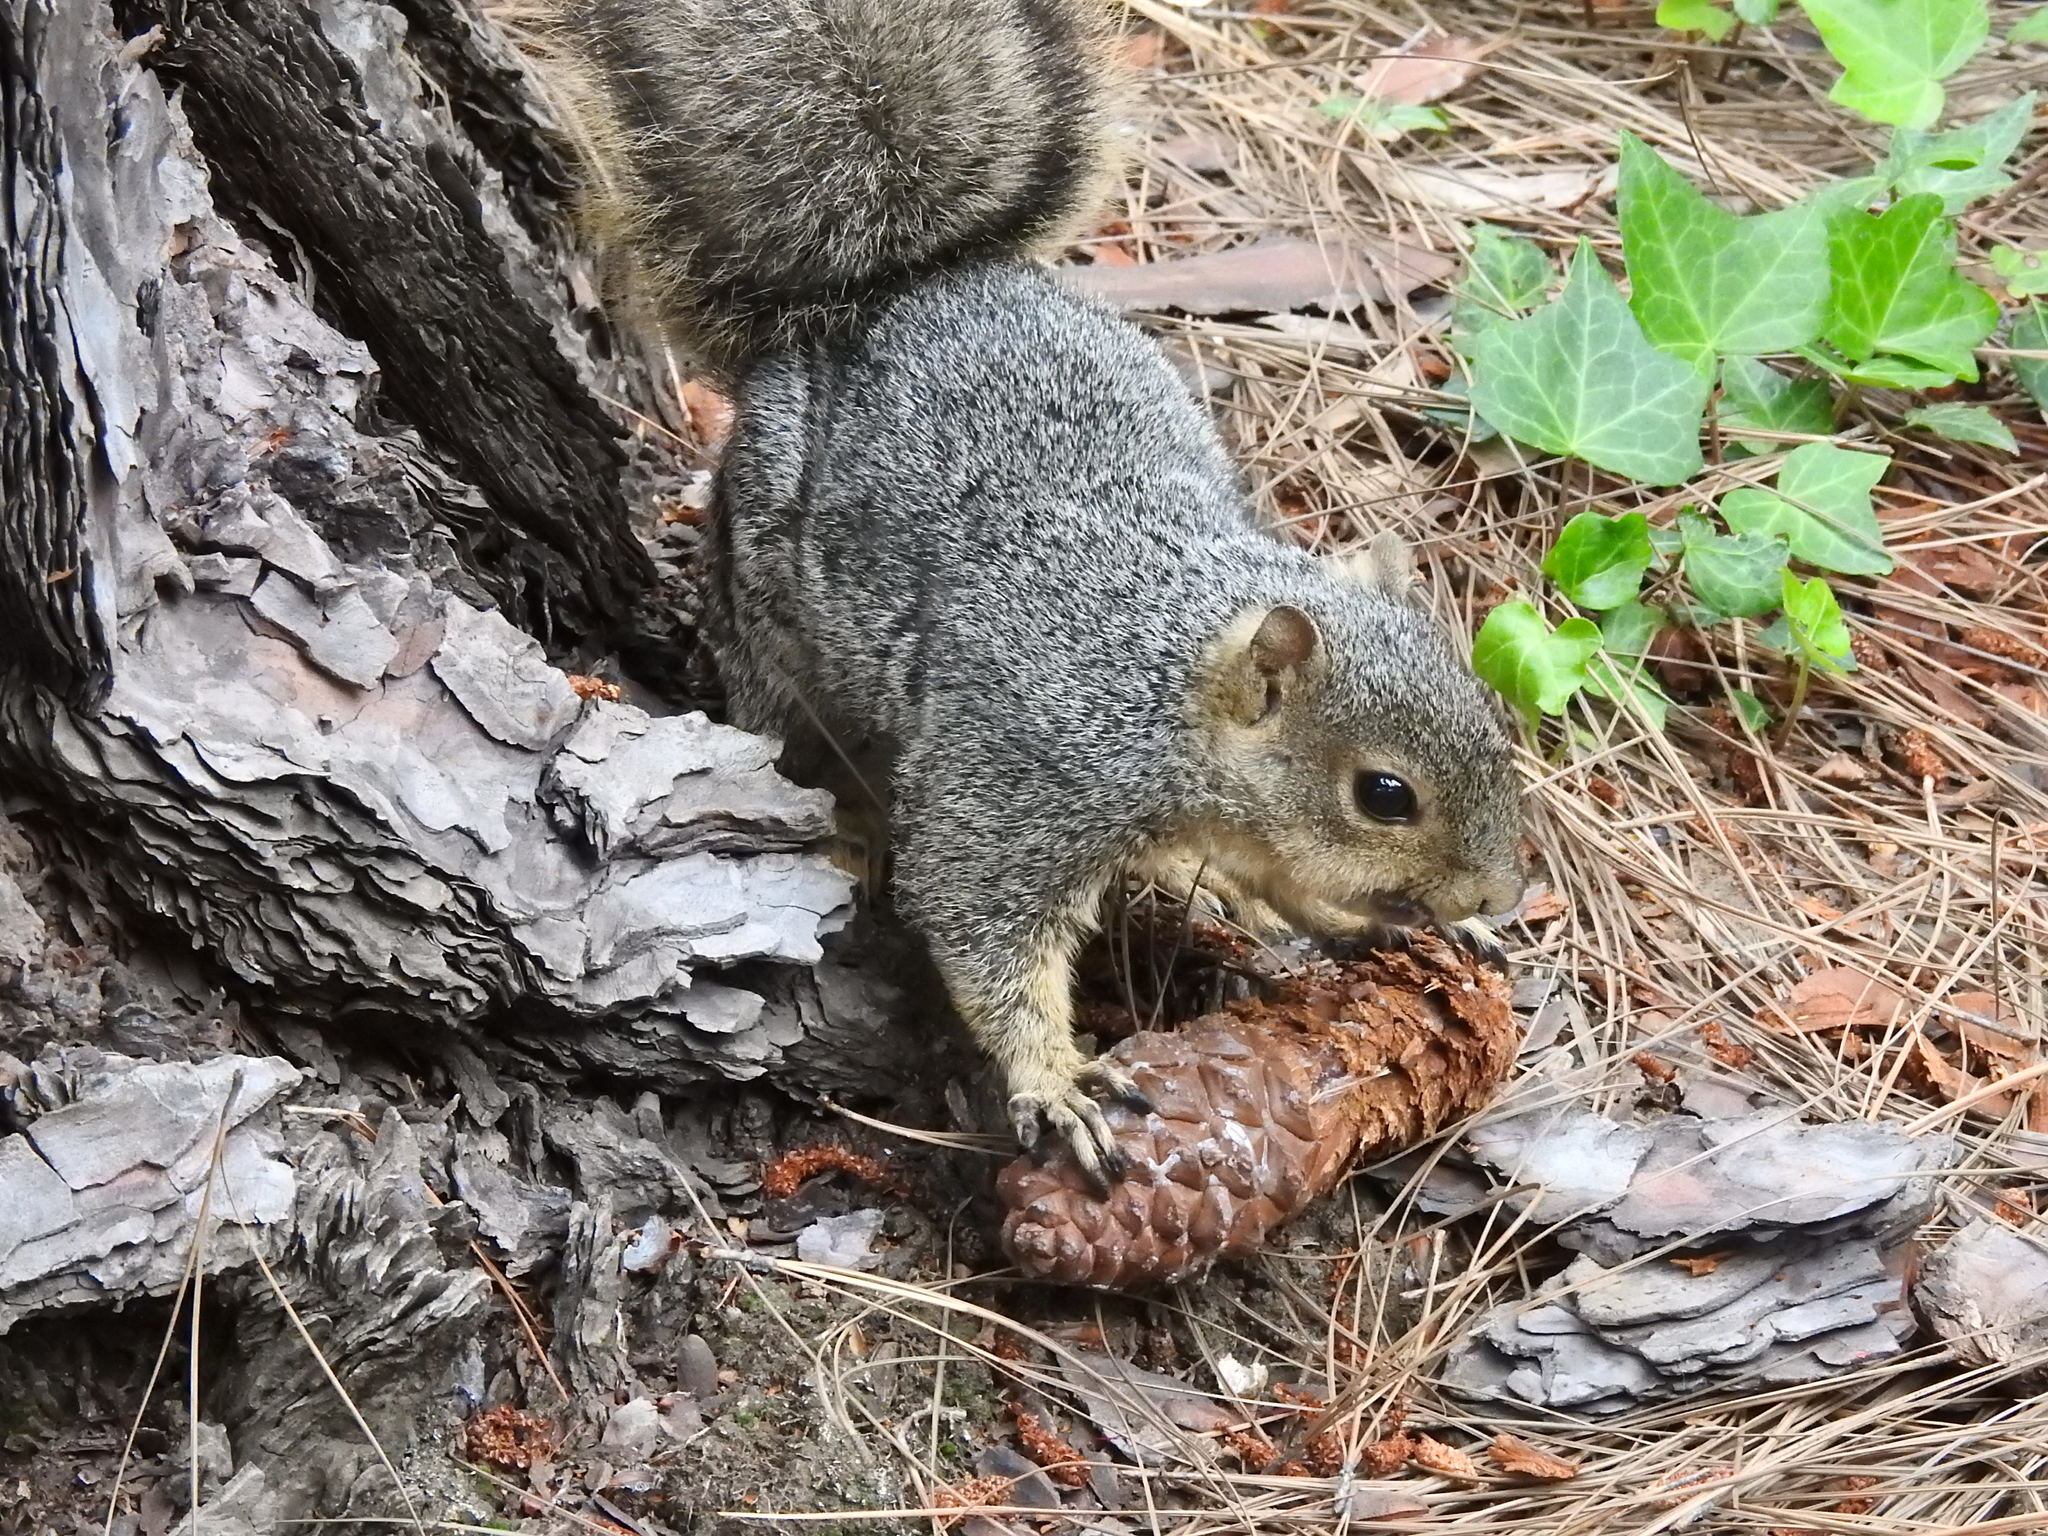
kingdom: Animalia
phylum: Chordata
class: Mammalia
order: Rodentia
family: Sciuridae
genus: Sciurus
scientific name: Sciurus niger
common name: Fox squirrel
